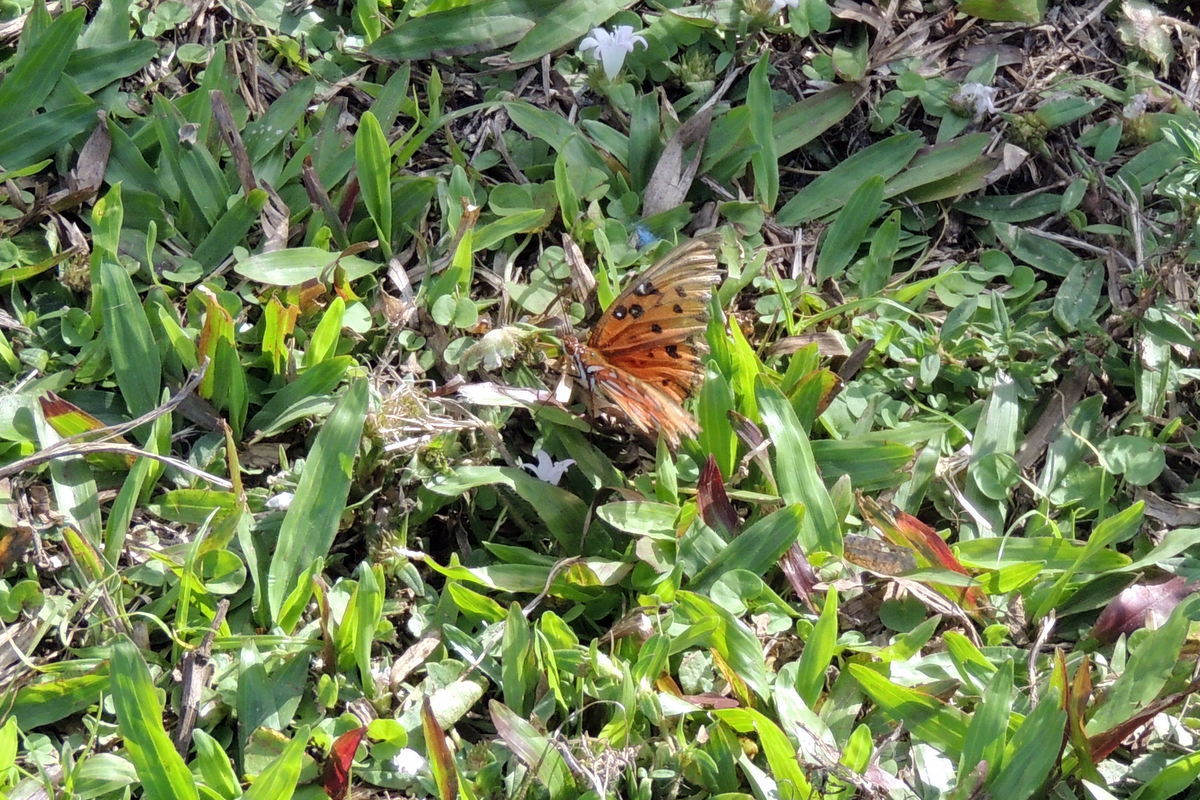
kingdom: Animalia
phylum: Arthropoda
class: Insecta
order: Lepidoptera
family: Nymphalidae
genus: Dione
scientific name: Dione vanillae
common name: Gulf fritillary
